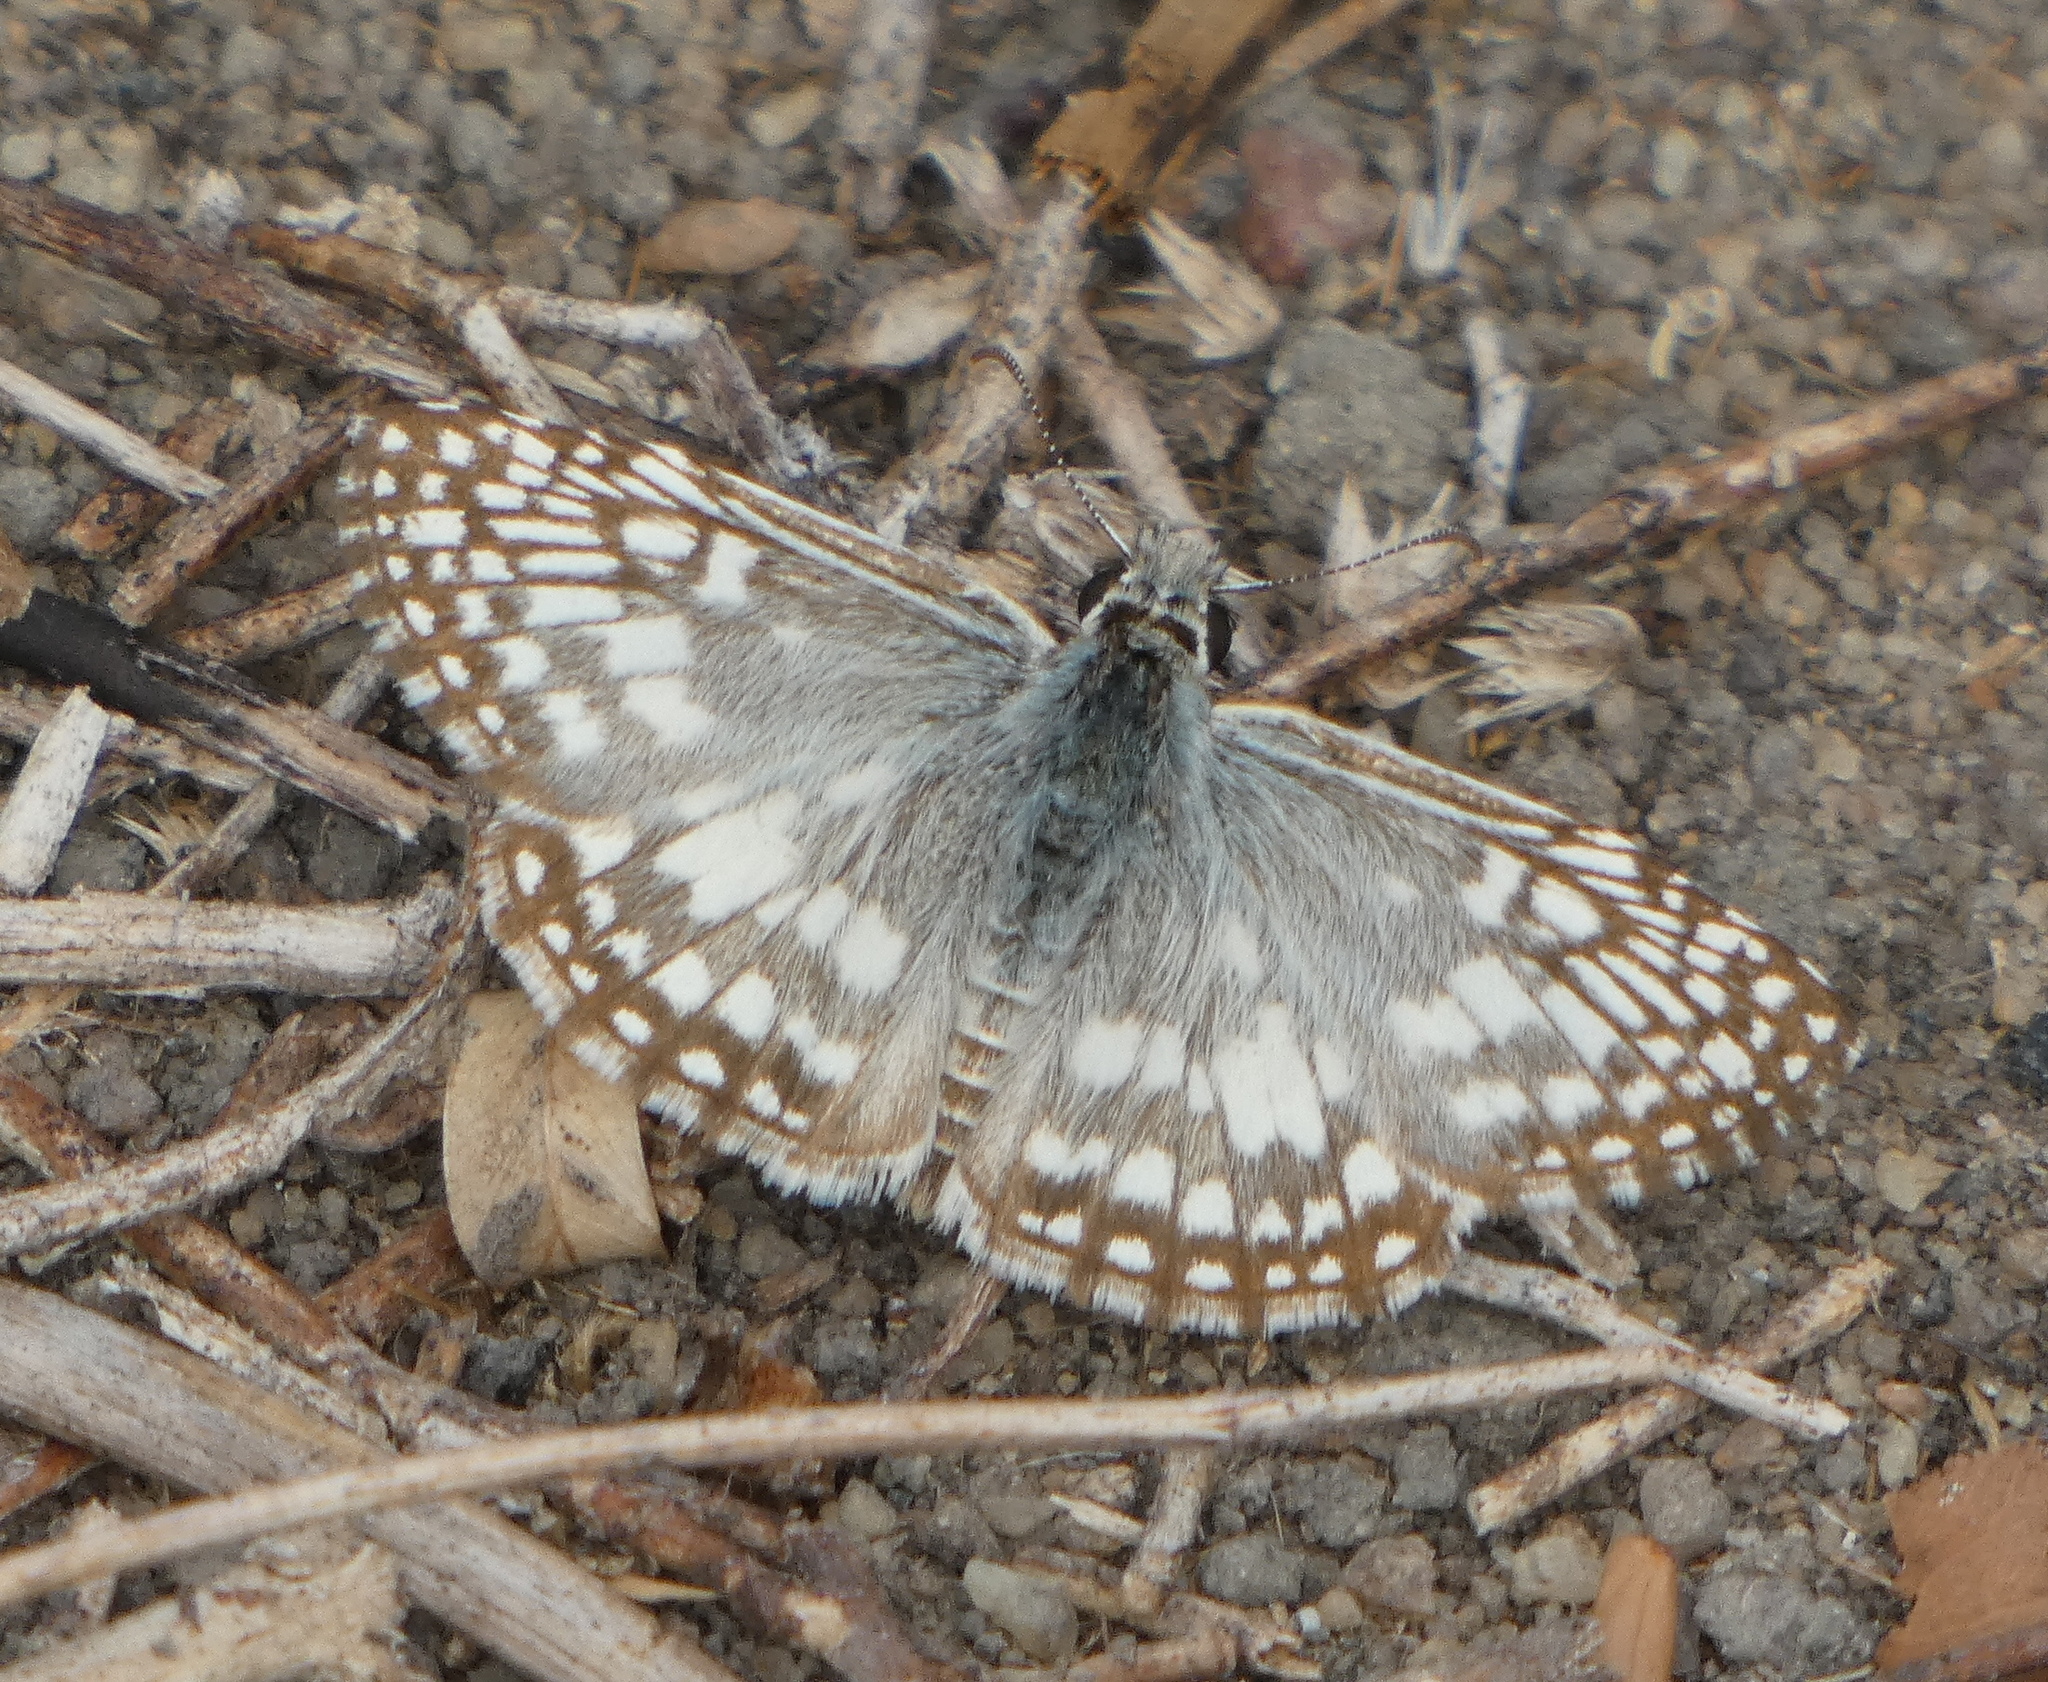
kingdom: Animalia
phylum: Arthropoda
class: Insecta
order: Lepidoptera
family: Hesperiidae
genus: Pyrgus
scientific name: Pyrgus oileus
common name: Tropical checkered-skipper
